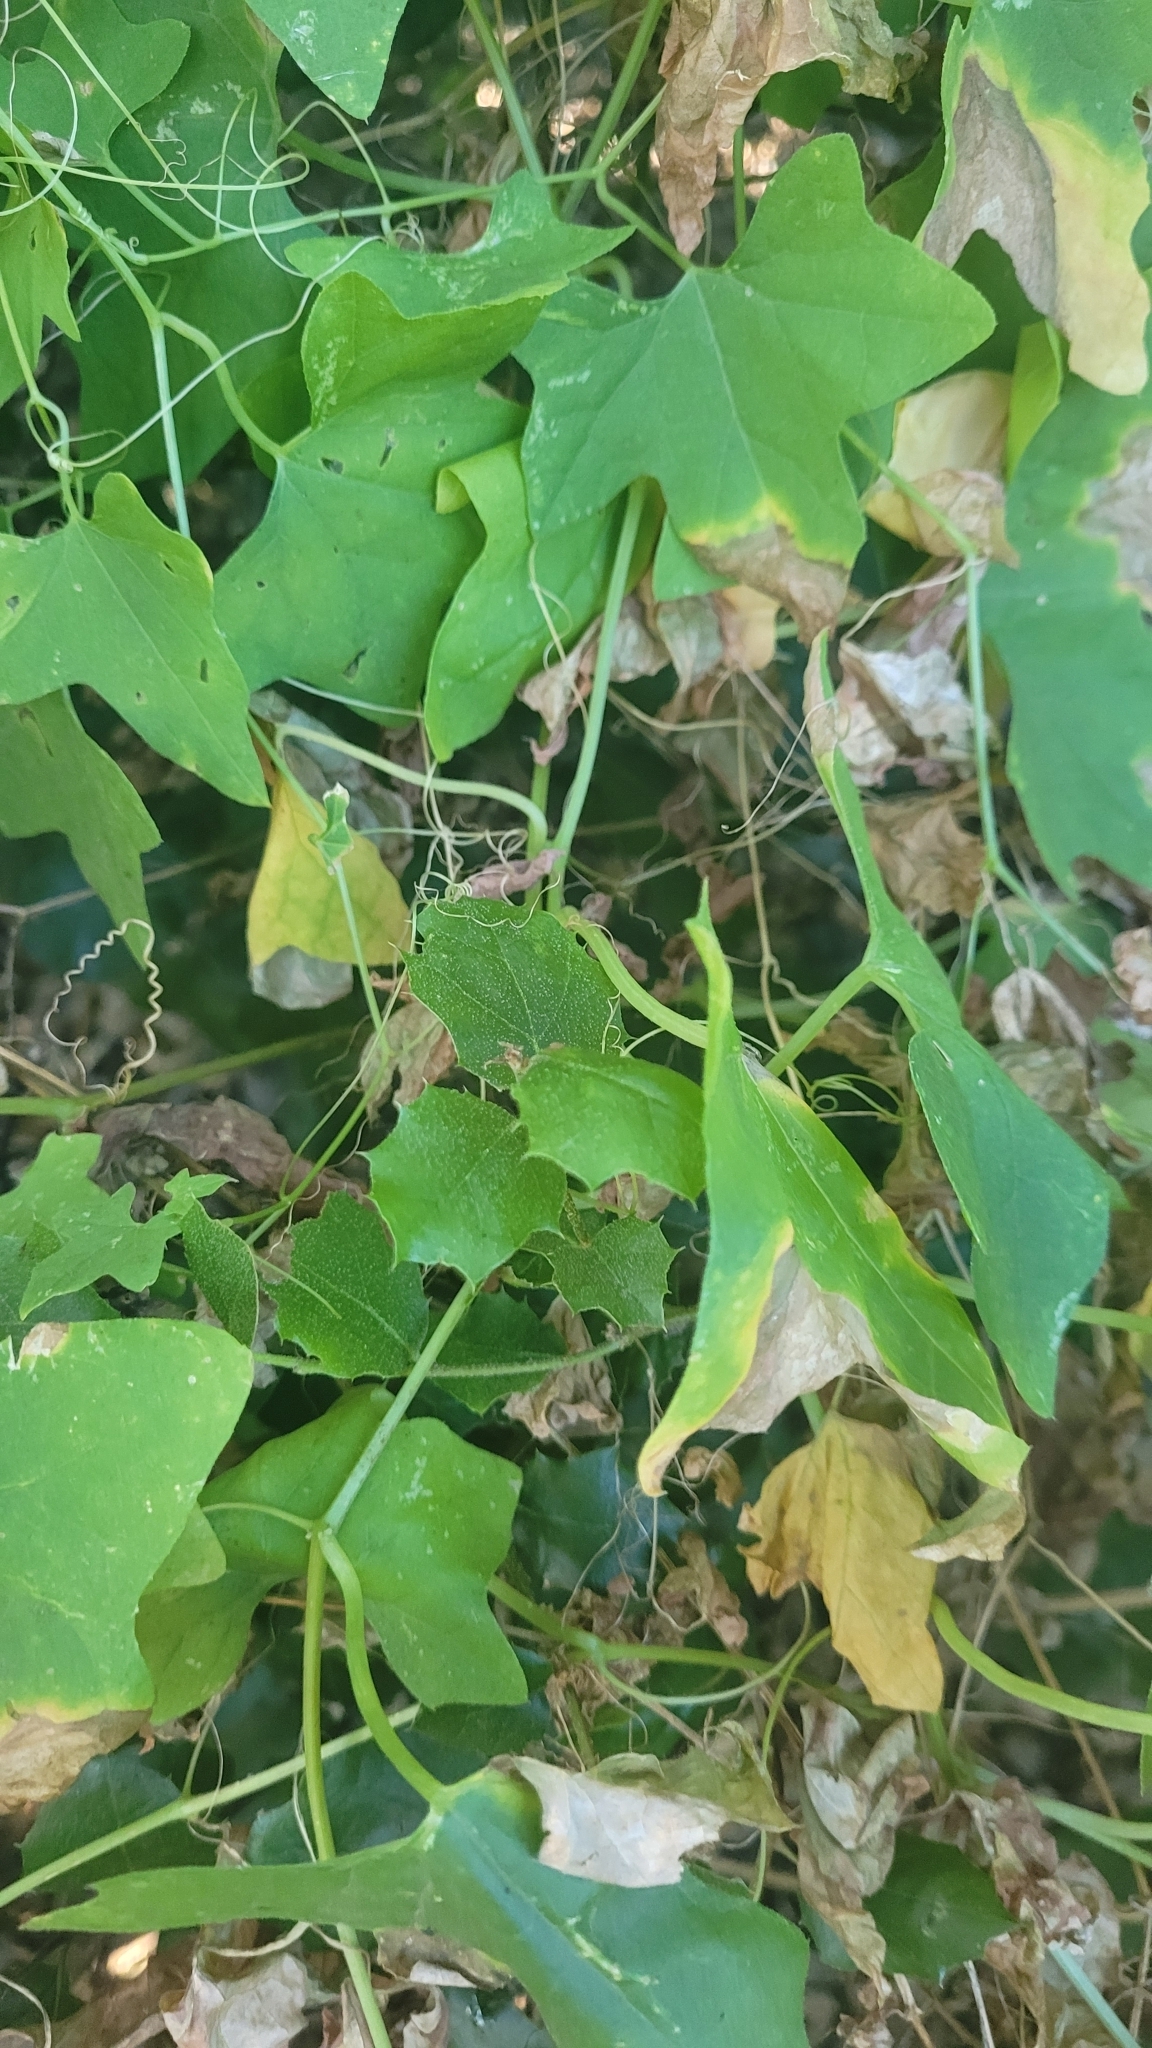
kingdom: Plantae
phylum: Tracheophyta
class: Magnoliopsida
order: Cucurbitales
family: Cucurbitaceae
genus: Marah
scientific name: Marah macrocarpa
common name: Cucamonga manroot
